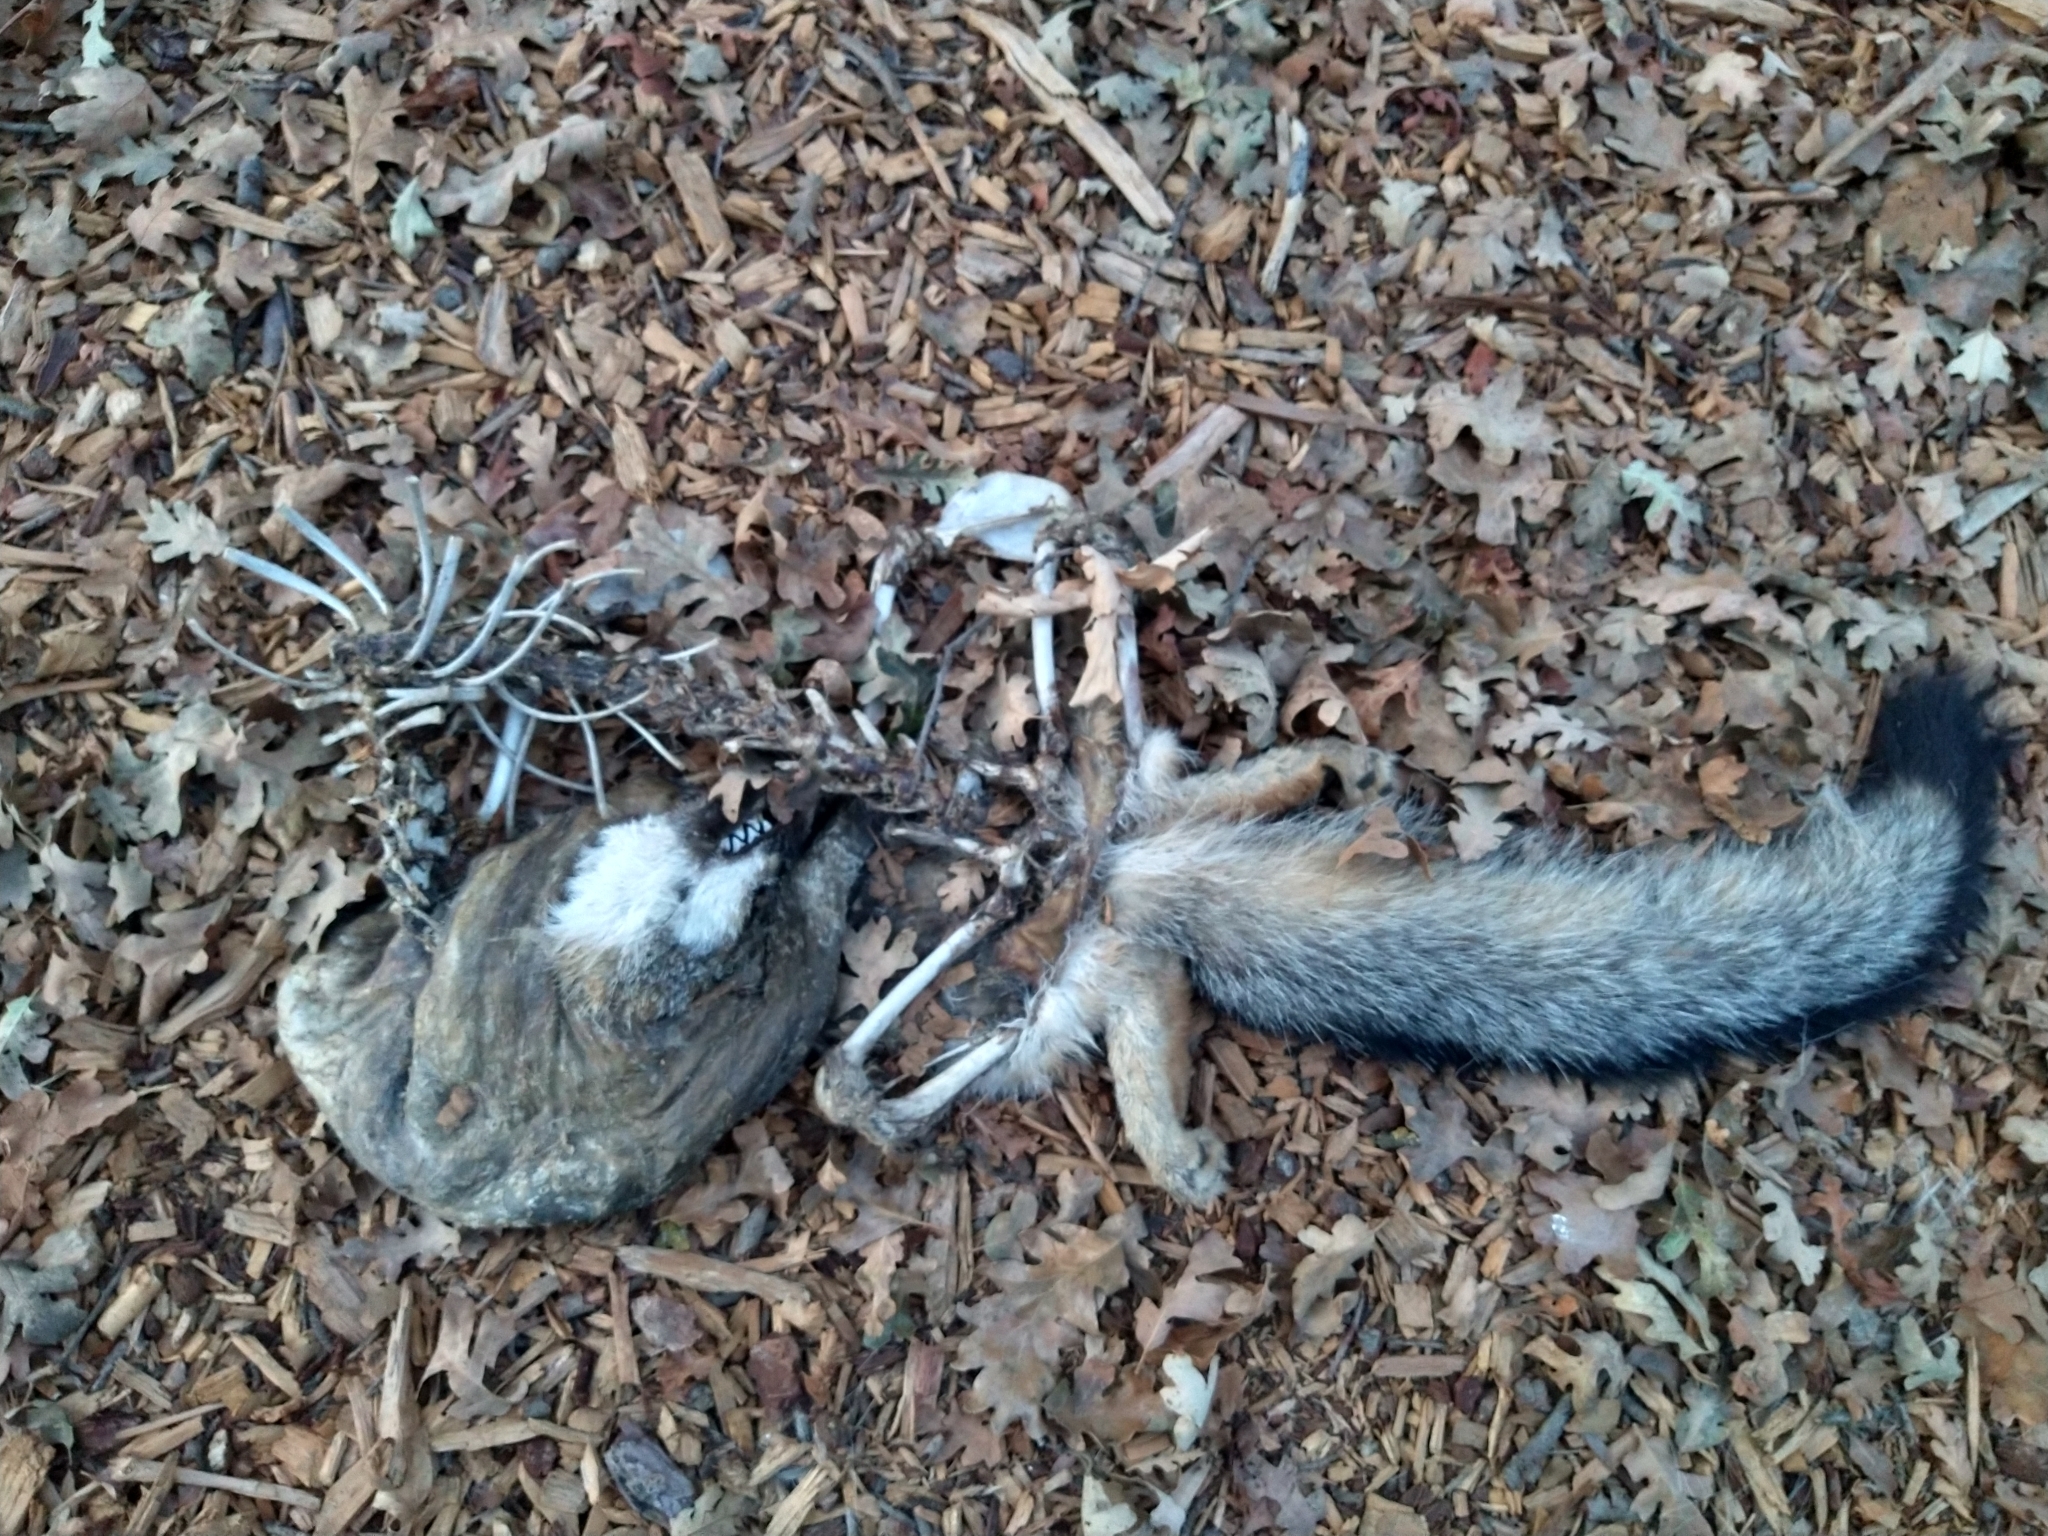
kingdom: Animalia
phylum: Chordata
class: Mammalia
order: Carnivora
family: Canidae
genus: Urocyon
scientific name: Urocyon cinereoargenteus
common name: Gray fox
